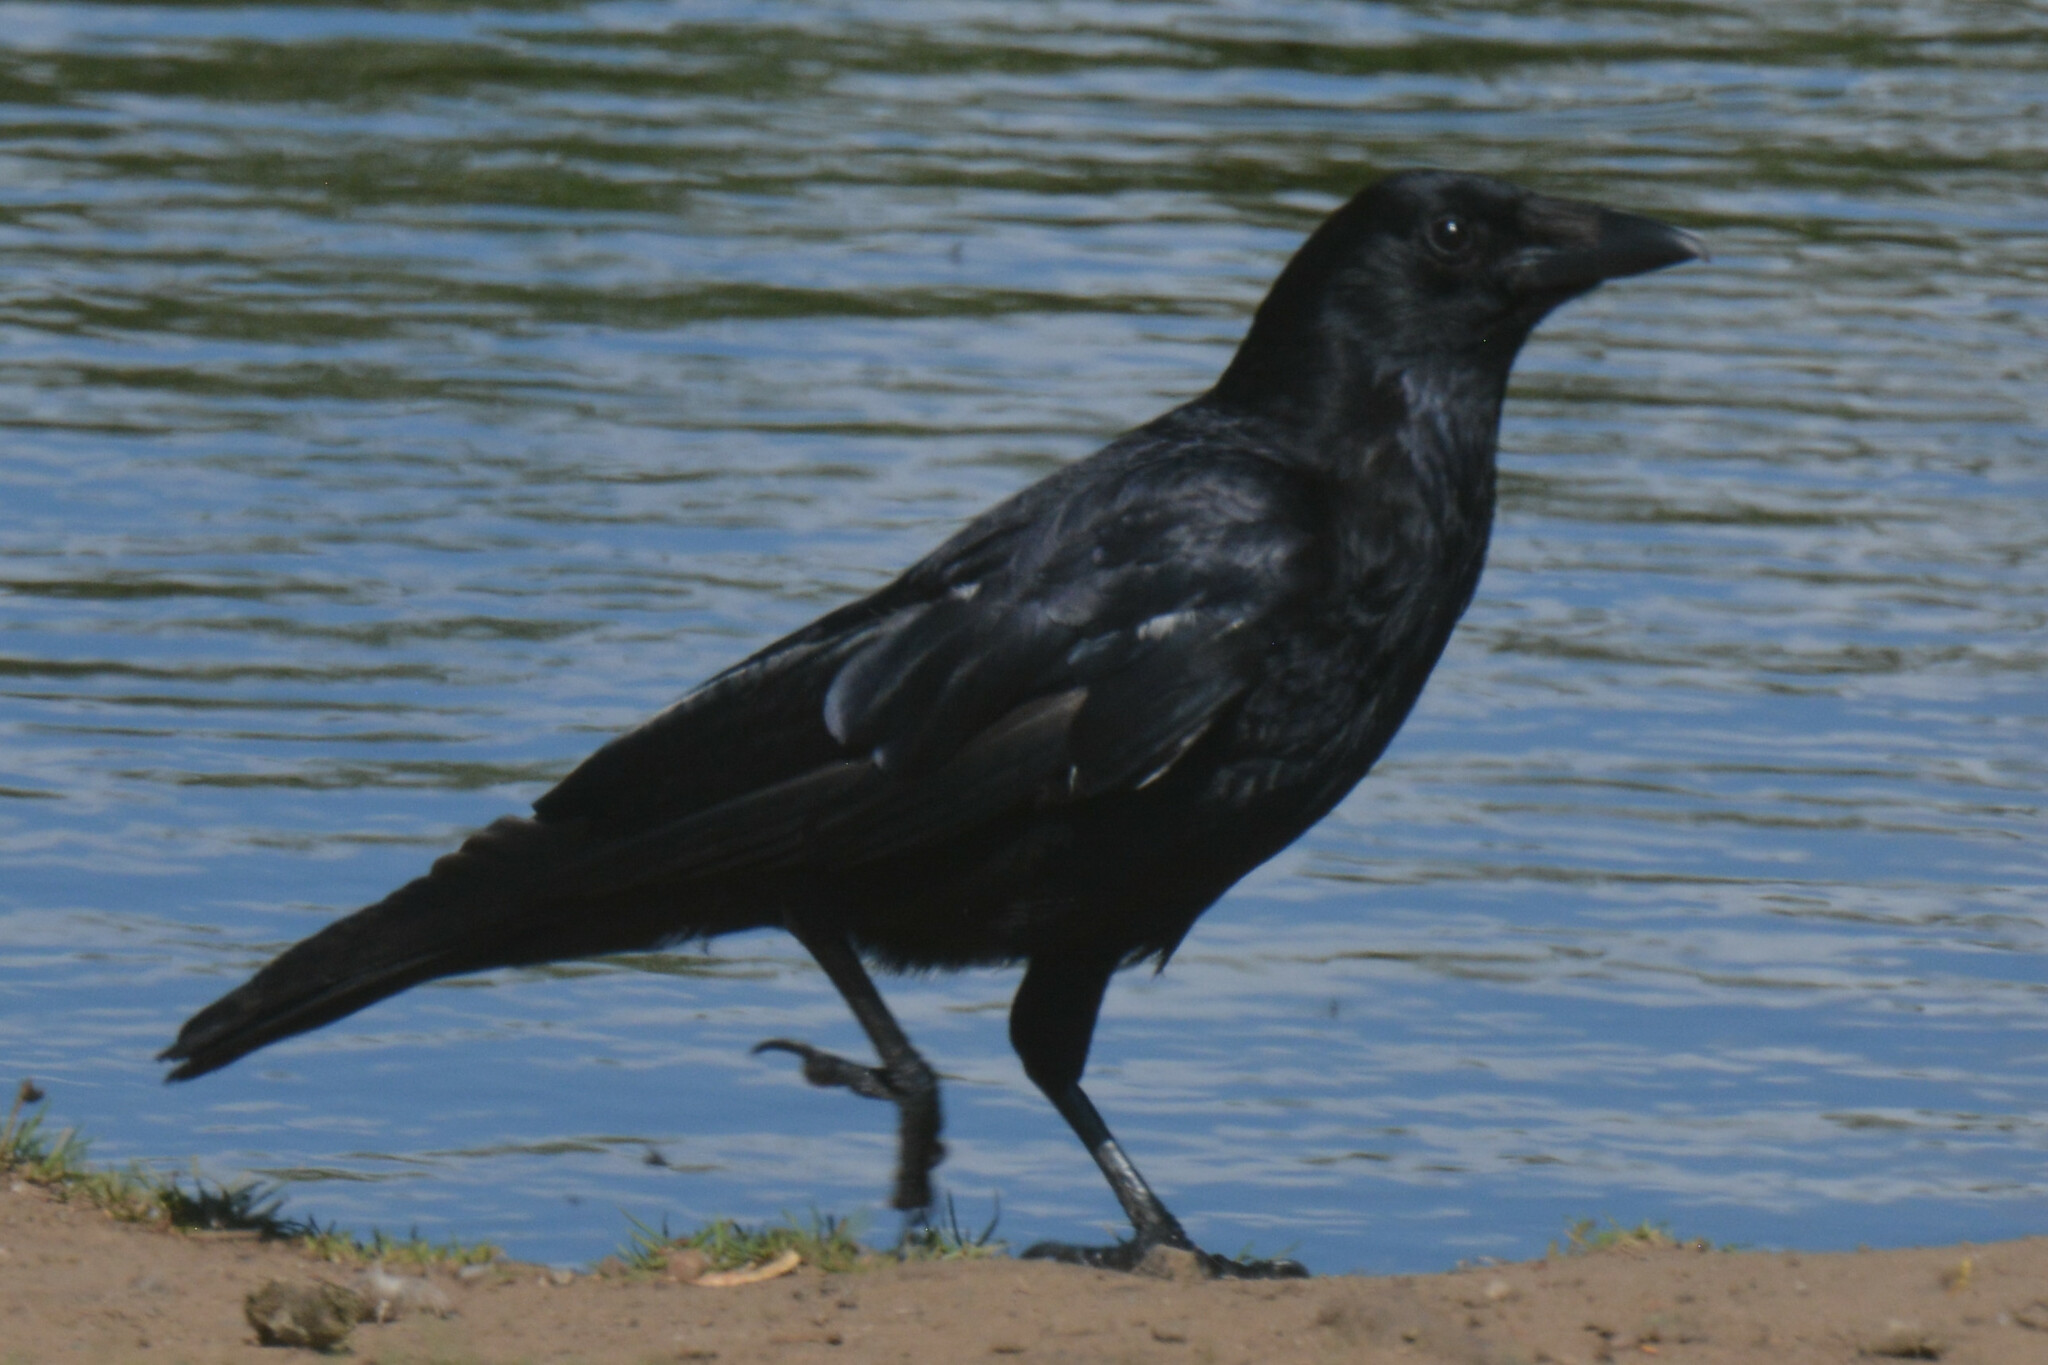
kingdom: Animalia
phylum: Chordata
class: Aves
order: Passeriformes
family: Corvidae
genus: Corvus
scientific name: Corvus corone
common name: Carrion crow
